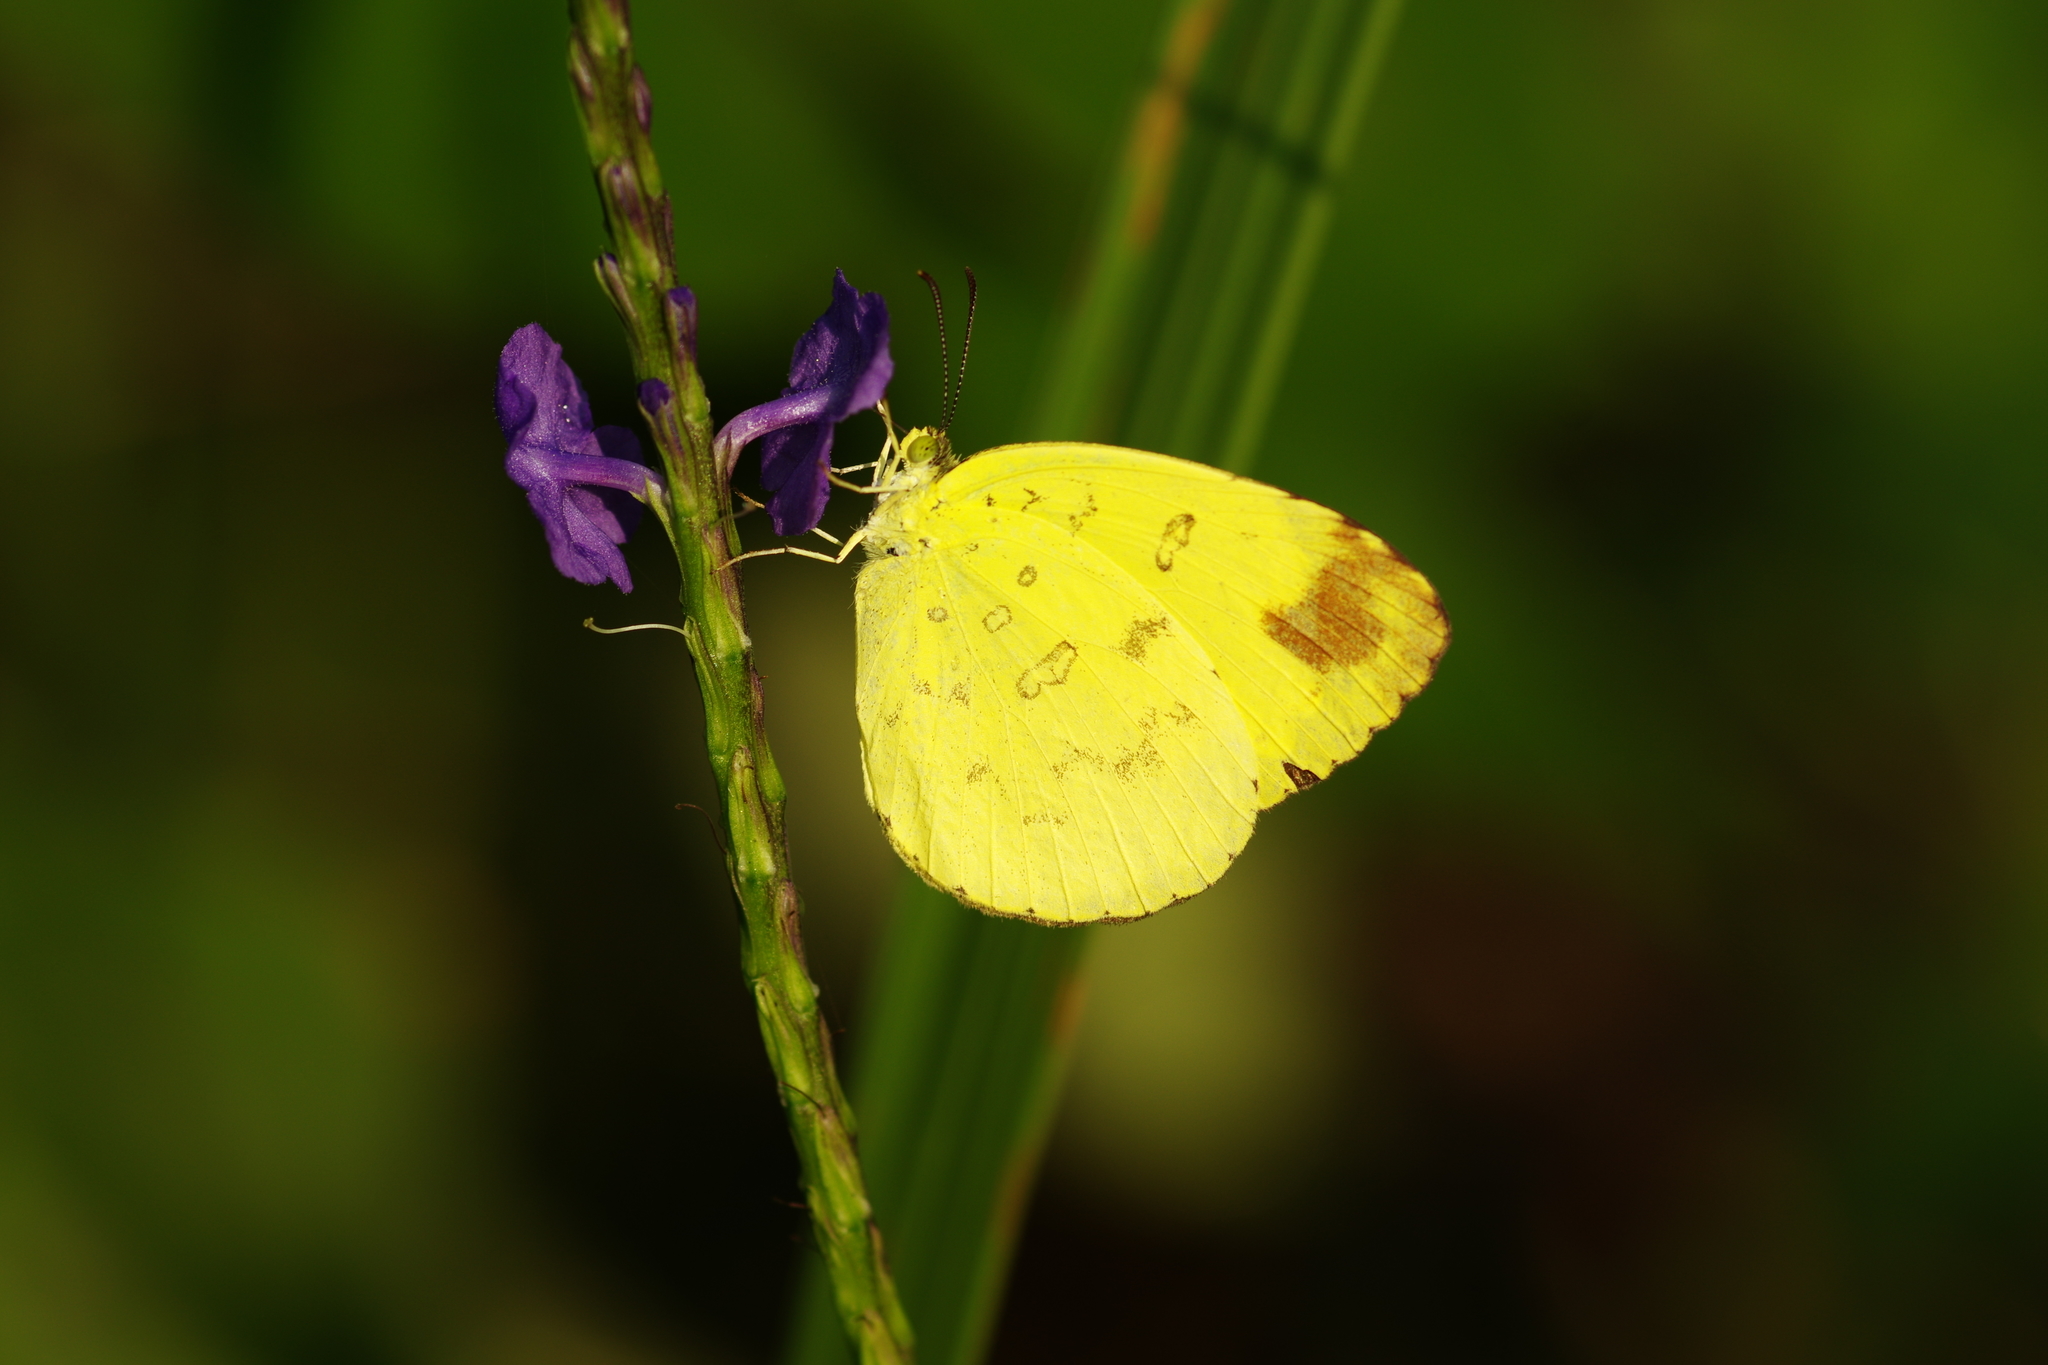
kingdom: Animalia
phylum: Arthropoda
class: Insecta
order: Lepidoptera
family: Pieridae
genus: Eurema
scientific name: Eurema blanda
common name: Three-spot grass yellow
